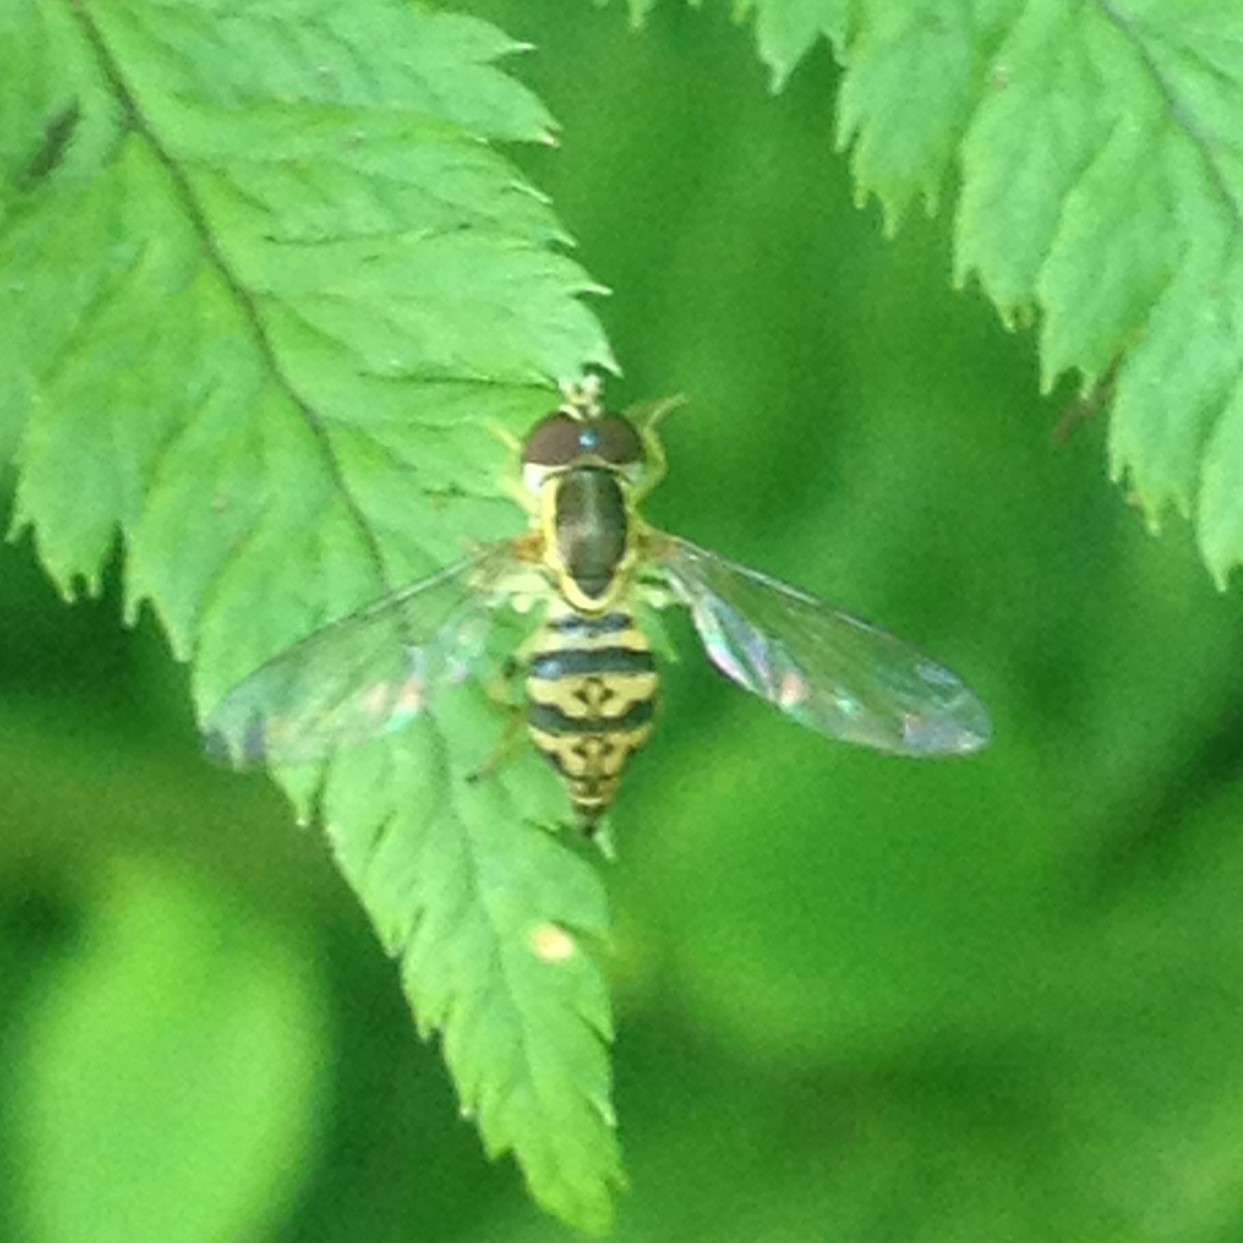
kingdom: Animalia
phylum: Arthropoda
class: Insecta
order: Diptera
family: Syrphidae
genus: Toxomerus
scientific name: Toxomerus geminatus
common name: Eastern calligrapher
